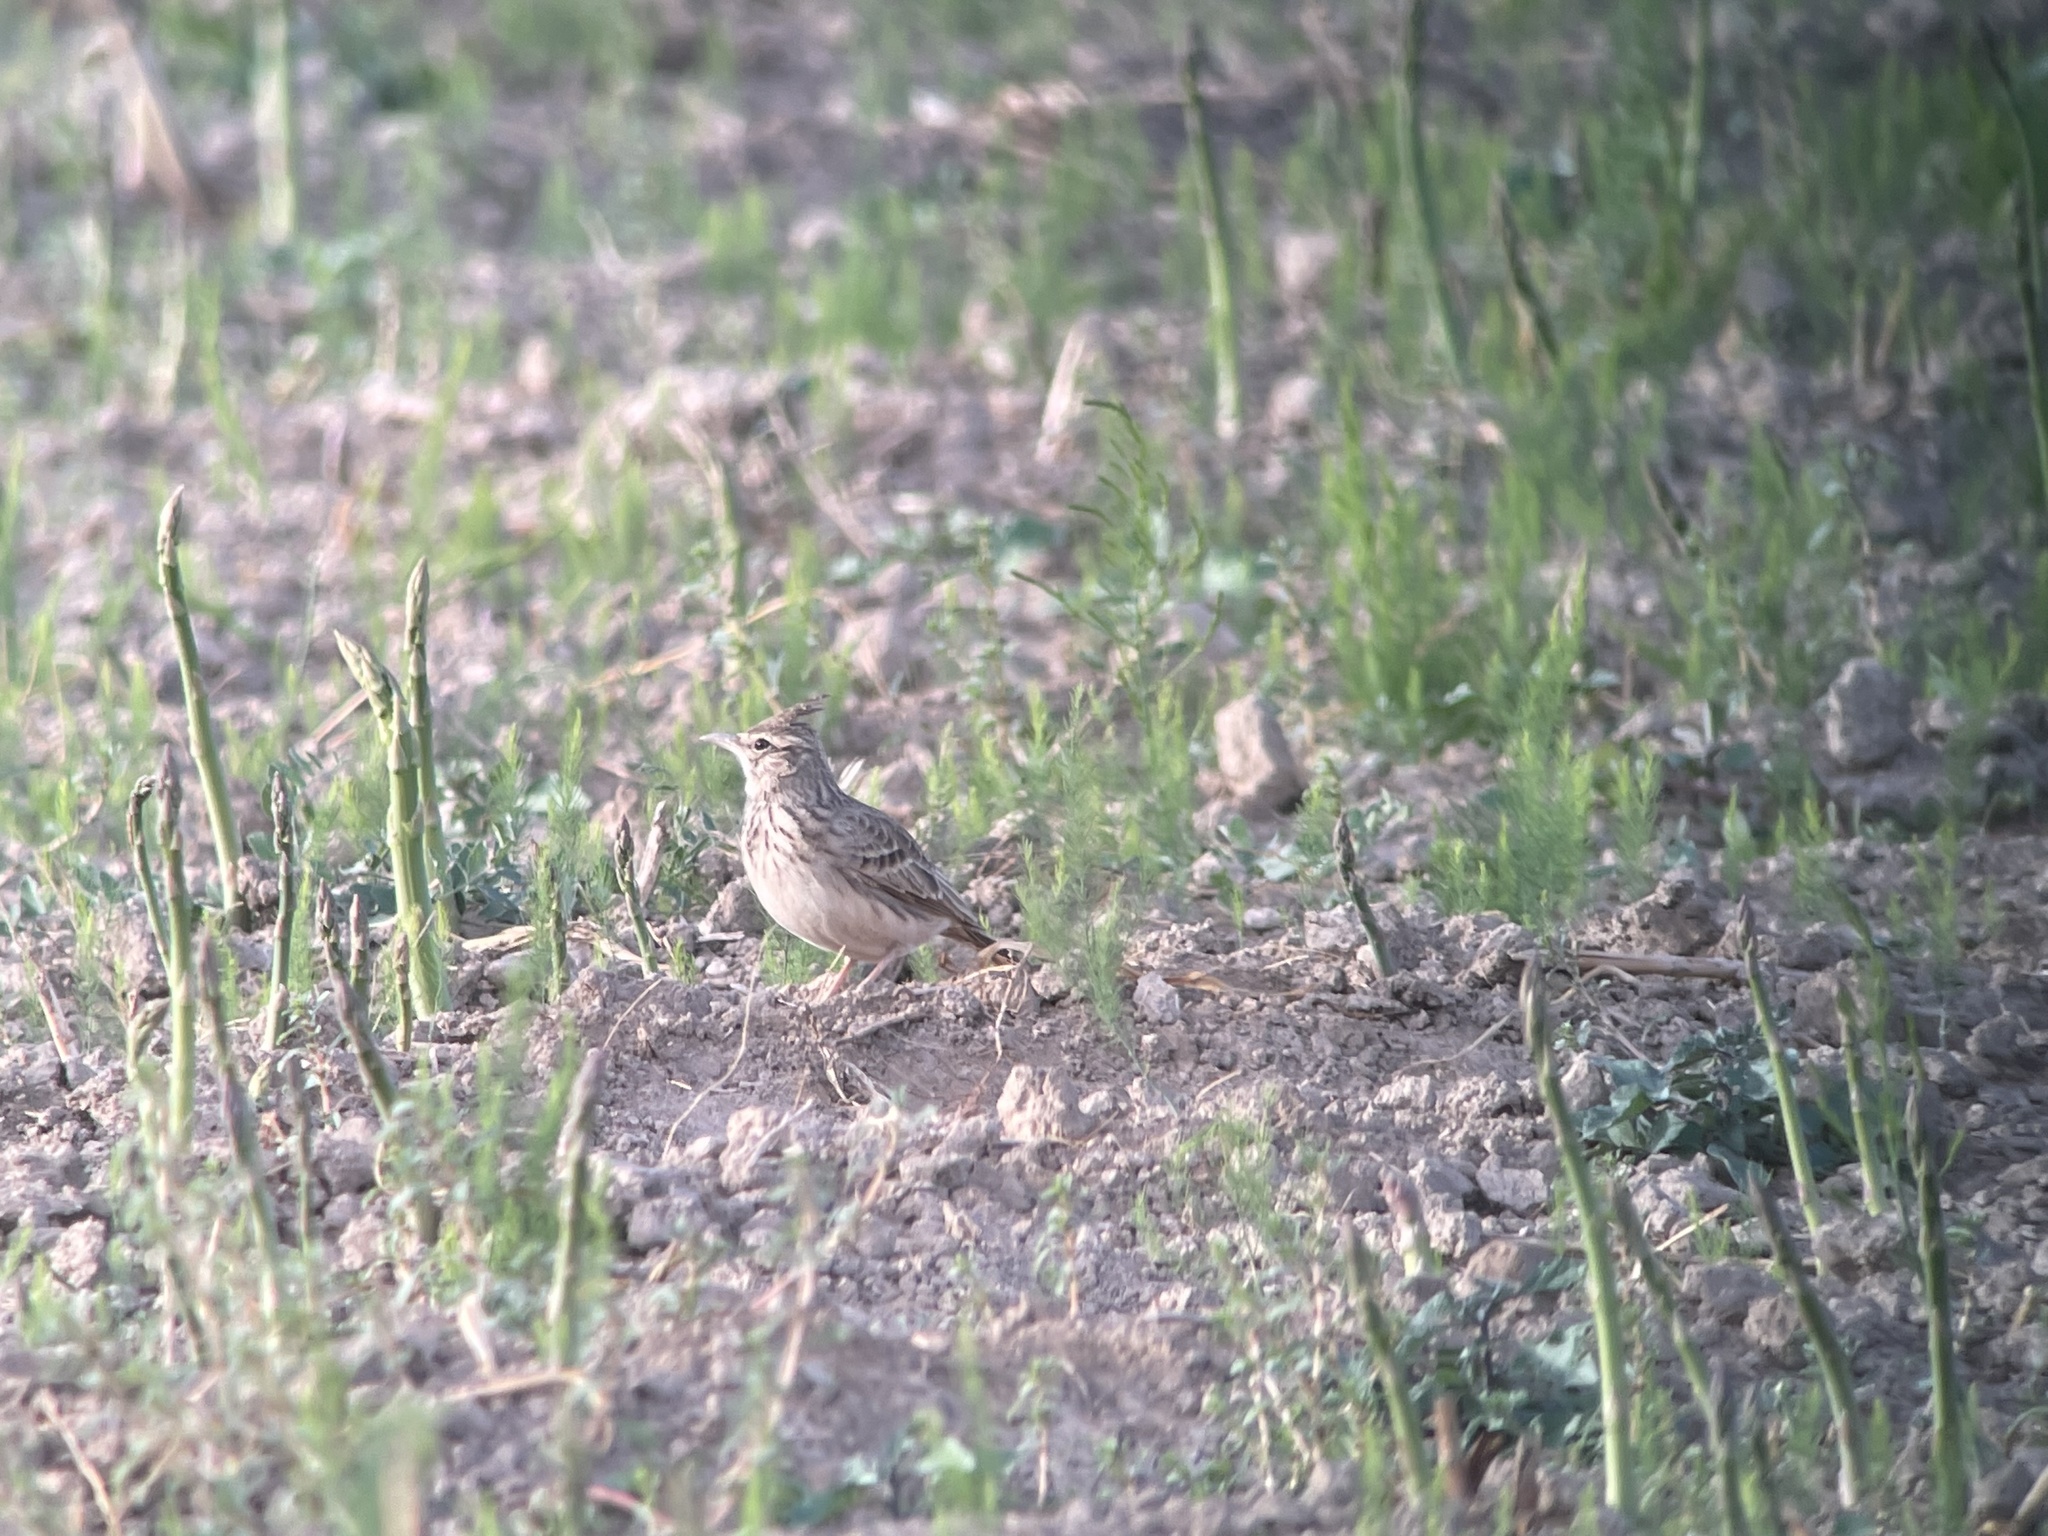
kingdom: Animalia
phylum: Chordata
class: Aves
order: Passeriformes
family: Alaudidae
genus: Galerida
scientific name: Galerida cristata
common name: Crested lark
